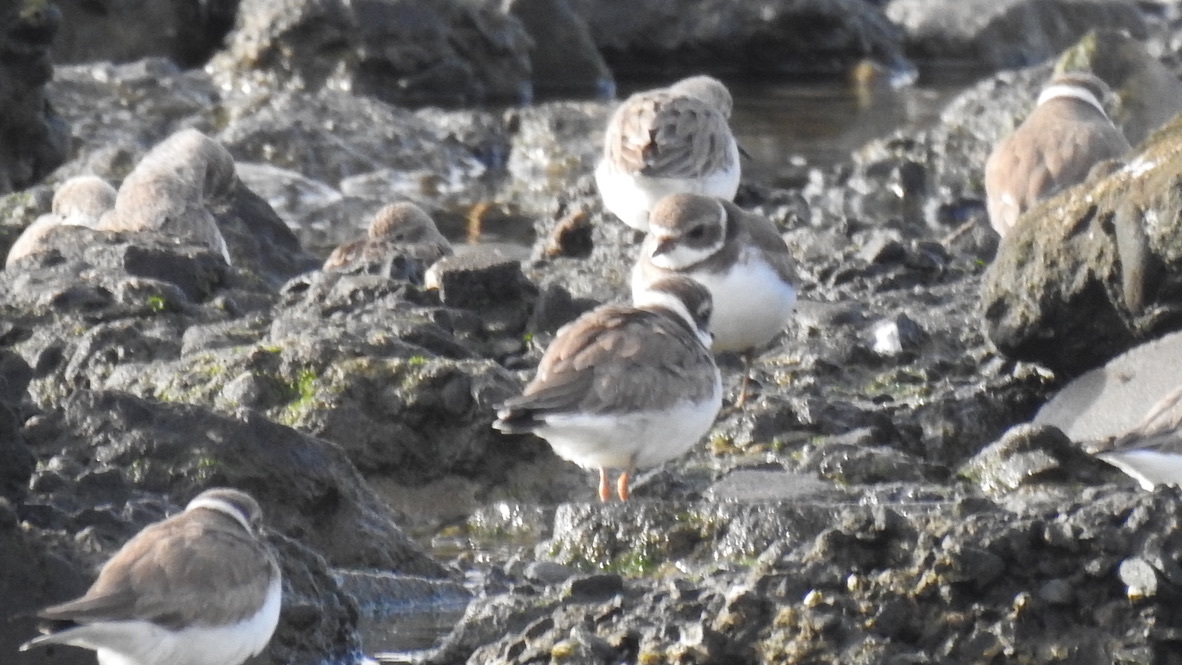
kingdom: Animalia
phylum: Chordata
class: Aves
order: Charadriiformes
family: Charadriidae
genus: Charadrius
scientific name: Charadrius semipalmatus
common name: Semipalmated plover
